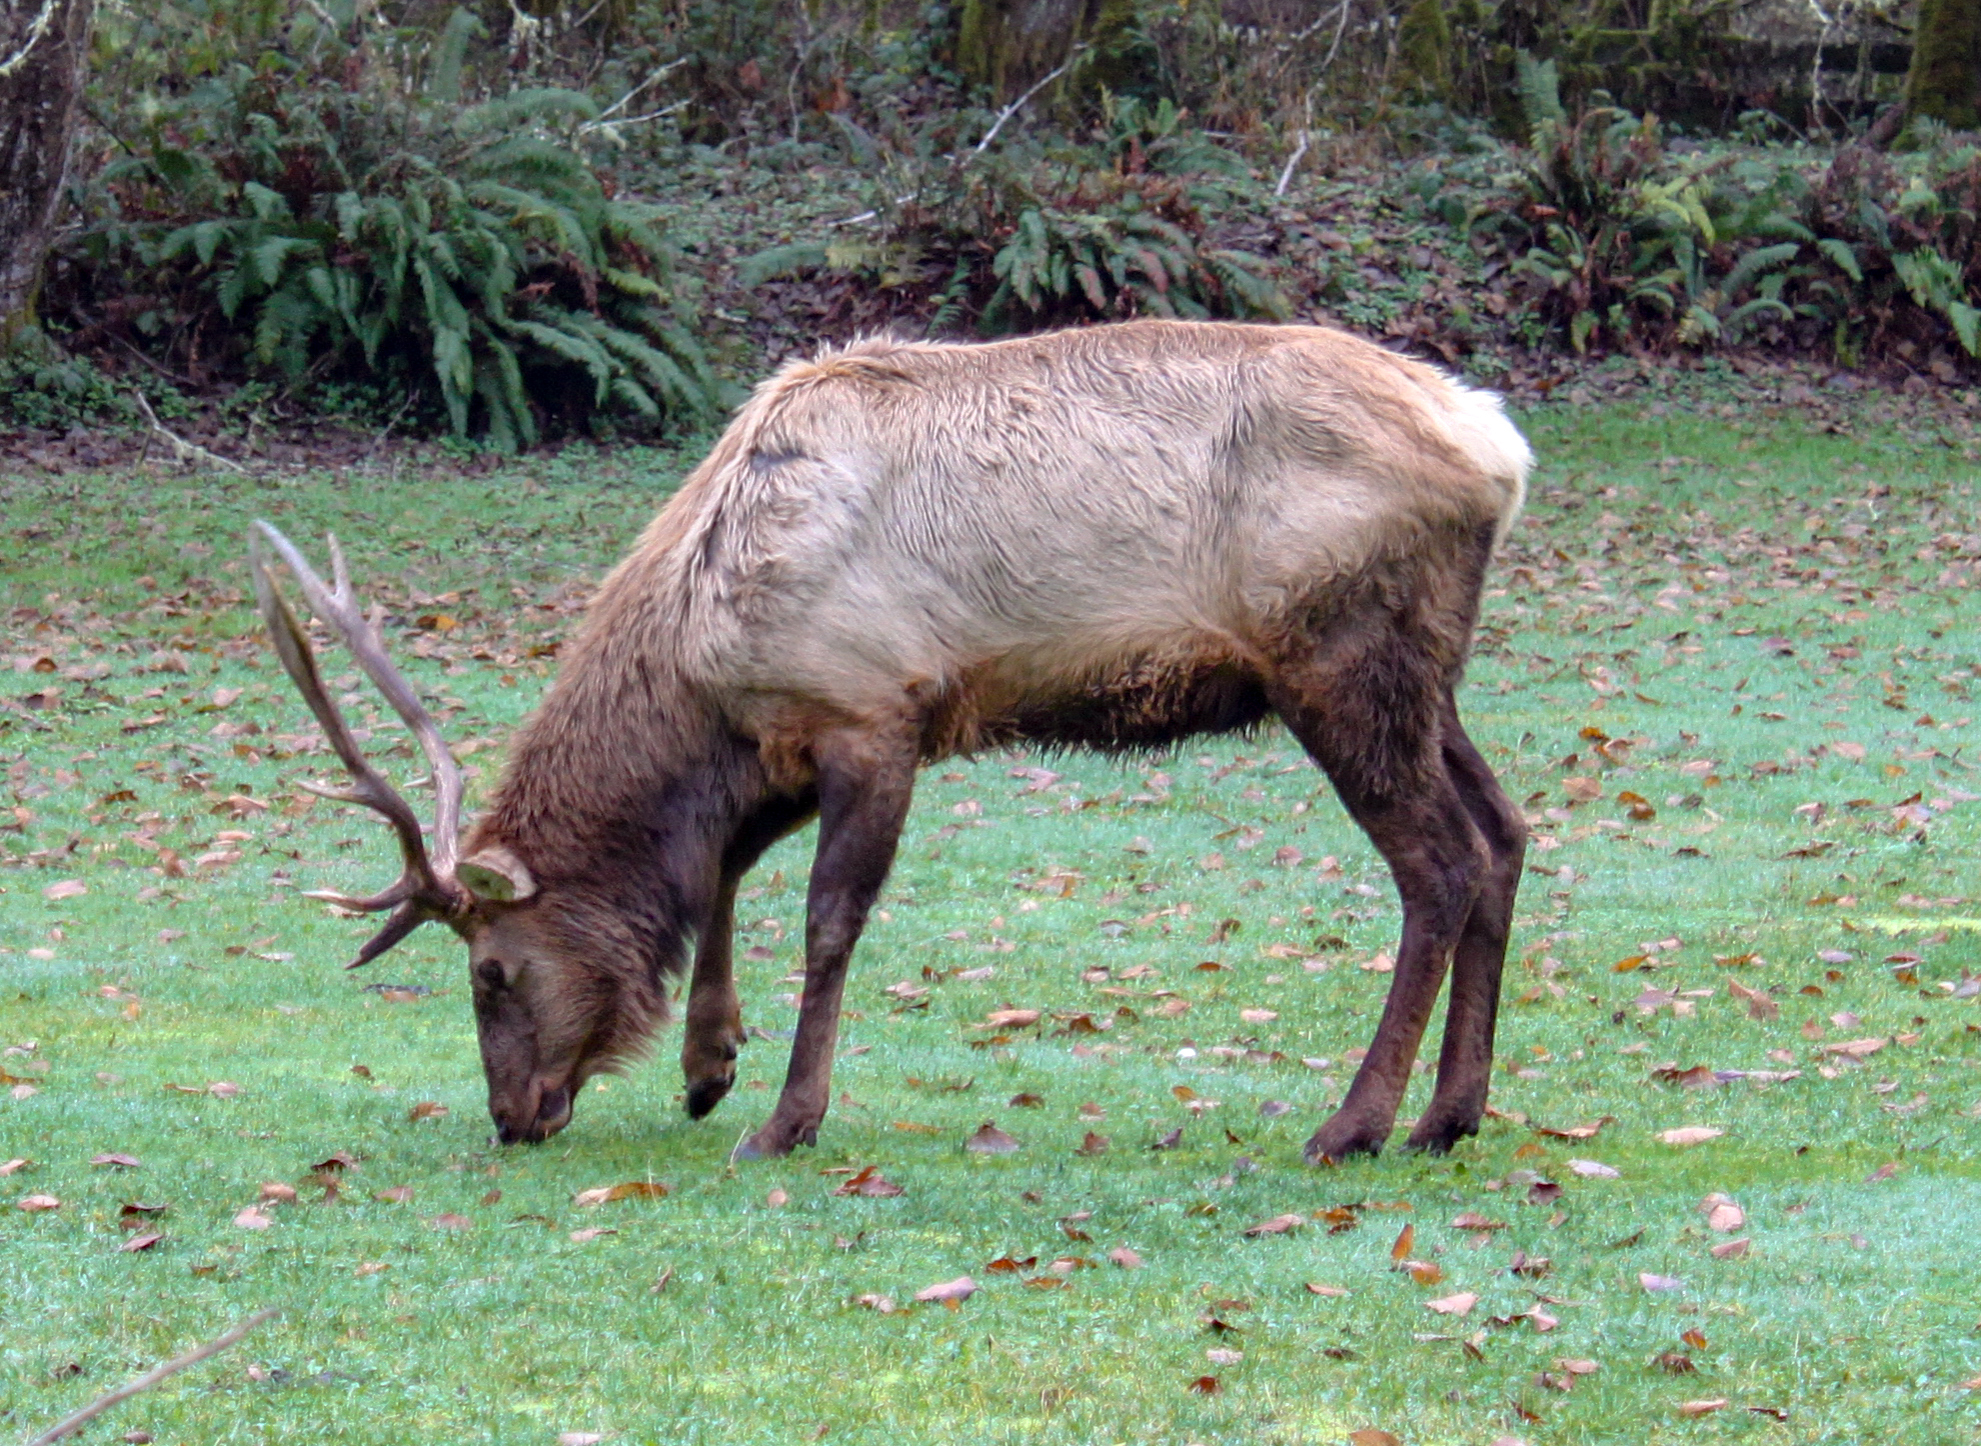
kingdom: Animalia
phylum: Chordata
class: Mammalia
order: Artiodactyla
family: Cervidae
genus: Cervus
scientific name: Cervus elaphus
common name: Red deer
